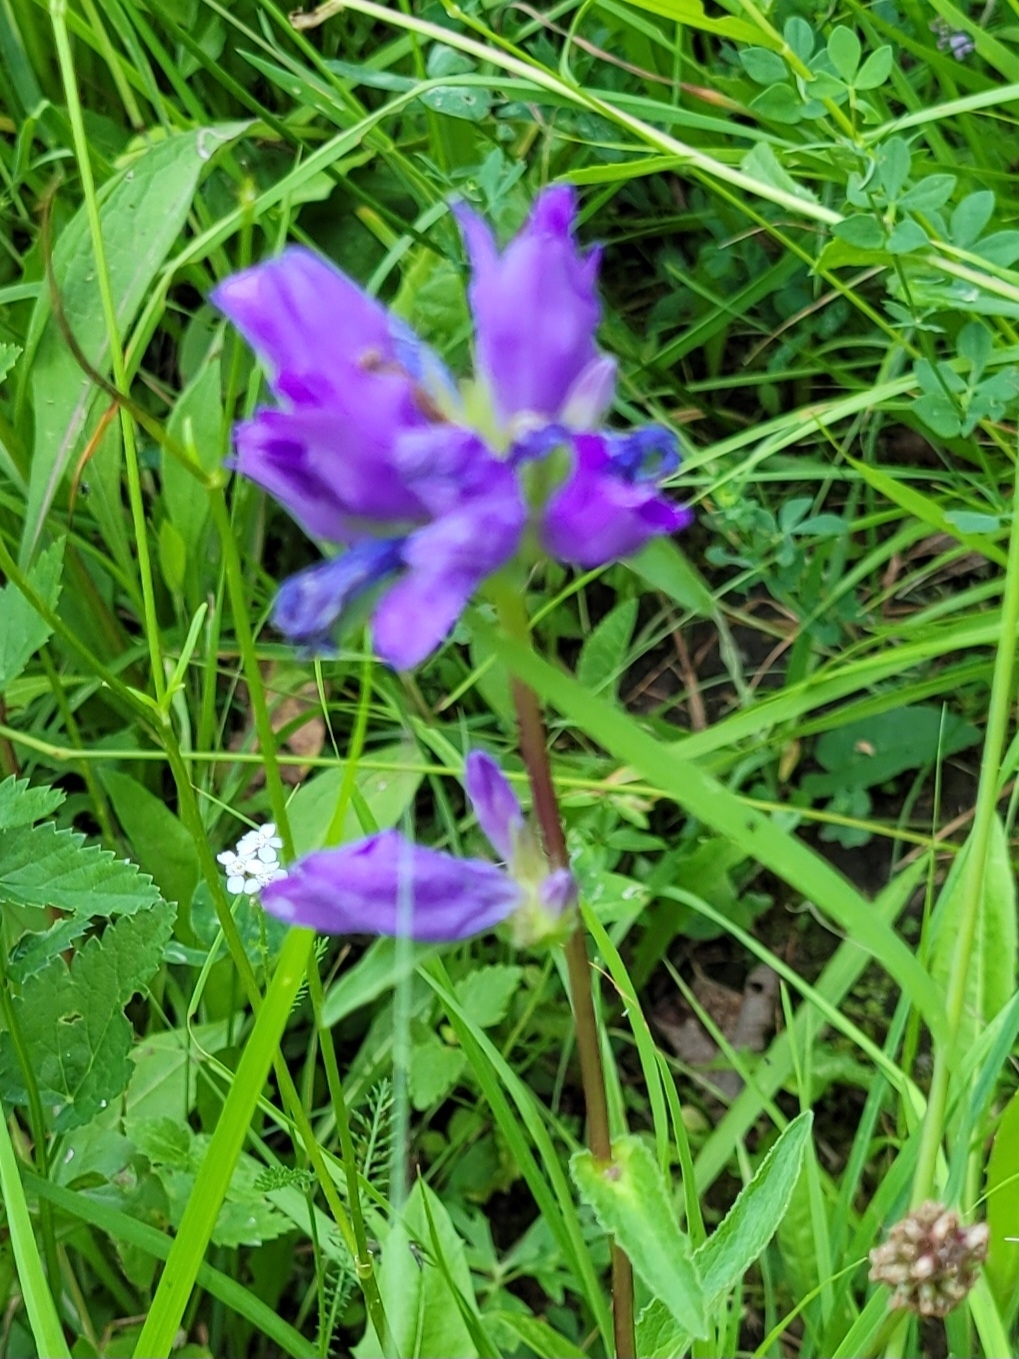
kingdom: Plantae
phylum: Tracheophyta
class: Magnoliopsida
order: Asterales
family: Campanulaceae
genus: Campanula
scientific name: Campanula glomerata
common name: Clustered bellflower
